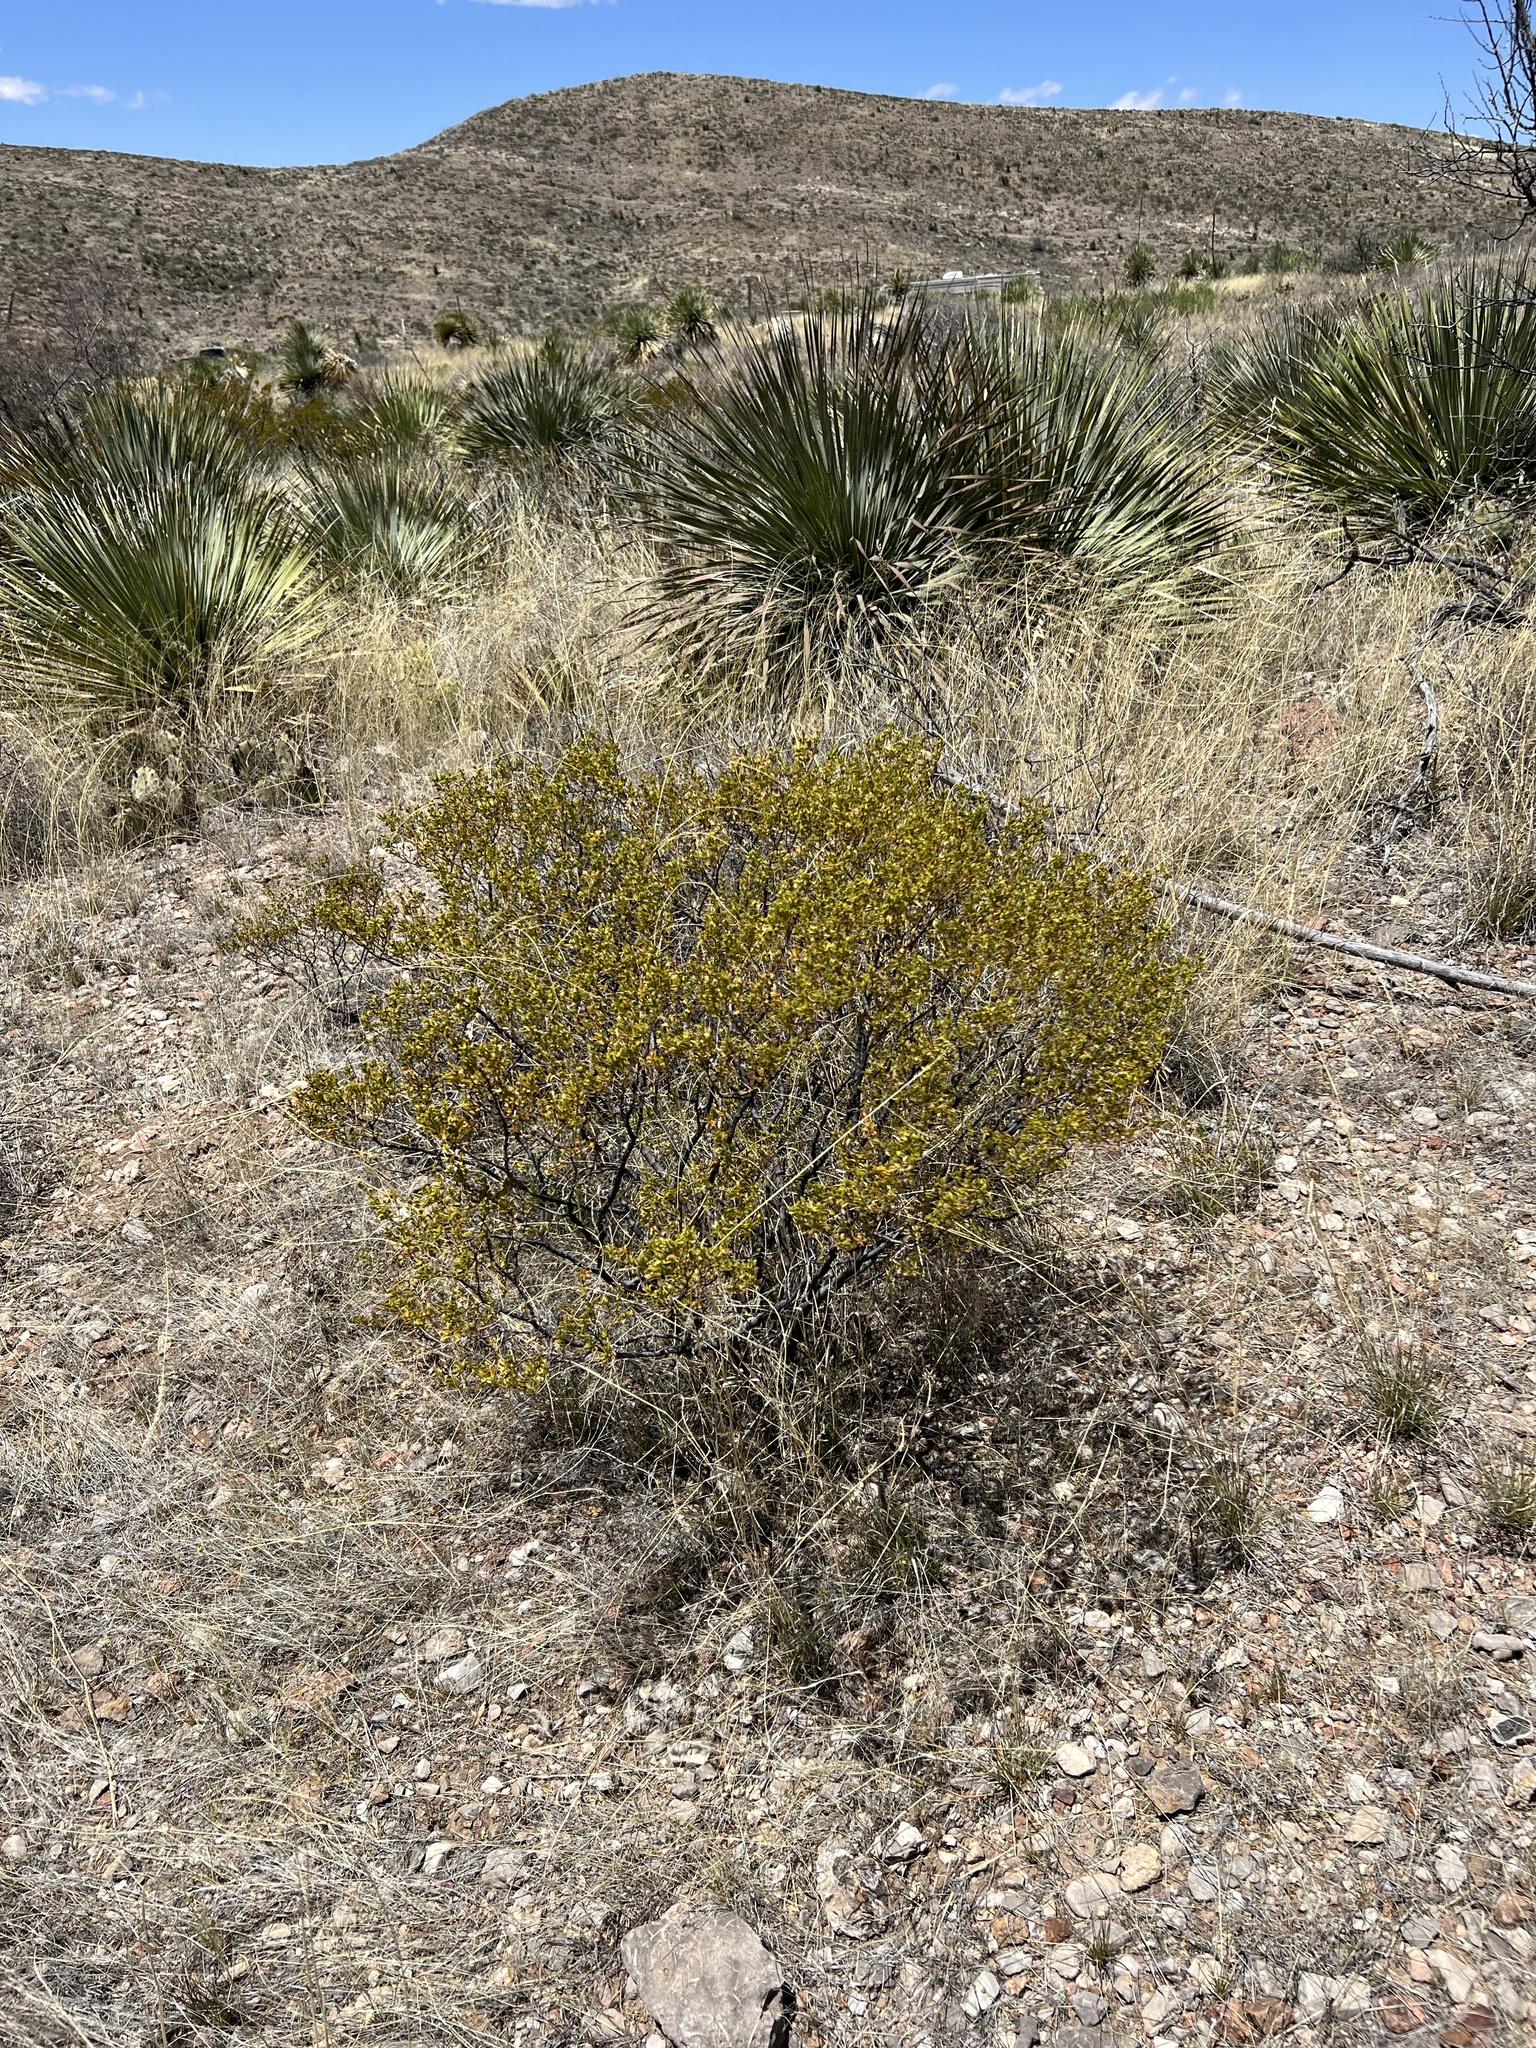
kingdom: Plantae
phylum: Tracheophyta
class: Magnoliopsida
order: Zygophyllales
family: Zygophyllaceae
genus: Larrea
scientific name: Larrea tridentata
